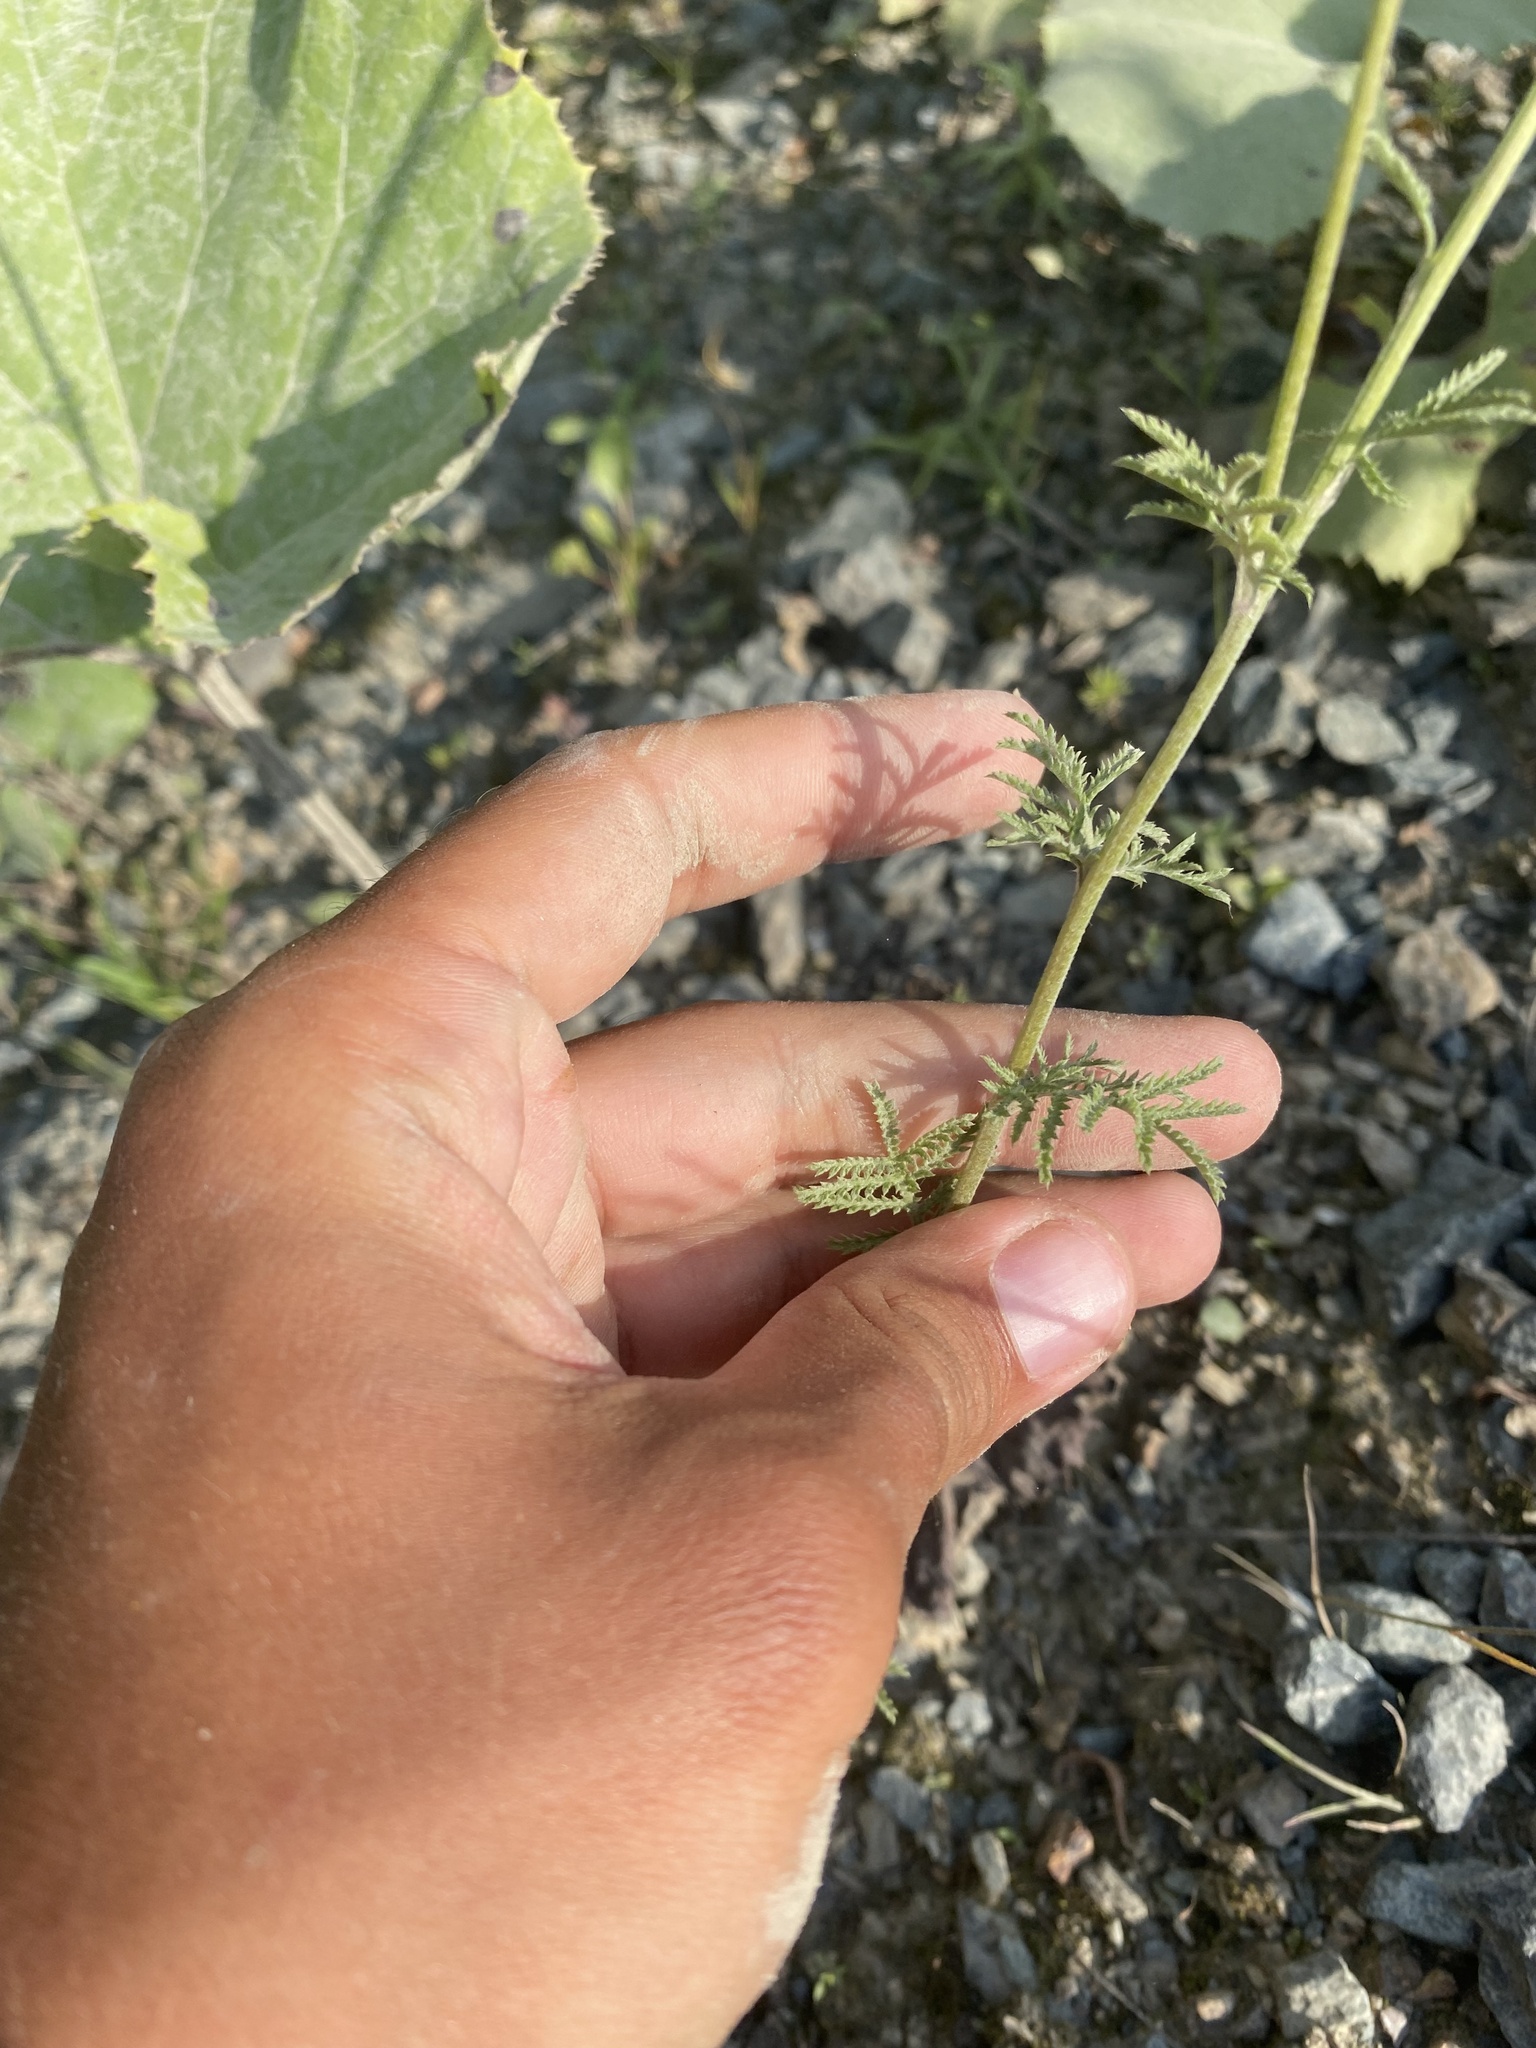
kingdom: Plantae
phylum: Tracheophyta
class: Magnoliopsida
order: Asterales
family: Asteraceae
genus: Cota
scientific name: Cota tinctoria
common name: Golden chamomile
